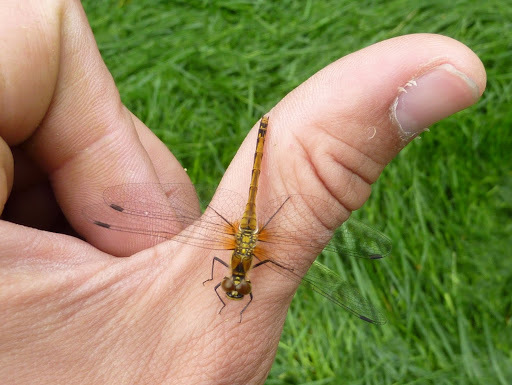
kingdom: Animalia
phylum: Arthropoda
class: Insecta
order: Odonata
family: Libellulidae
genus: Sympetrum
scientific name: Sympetrum danae
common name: Black darter
